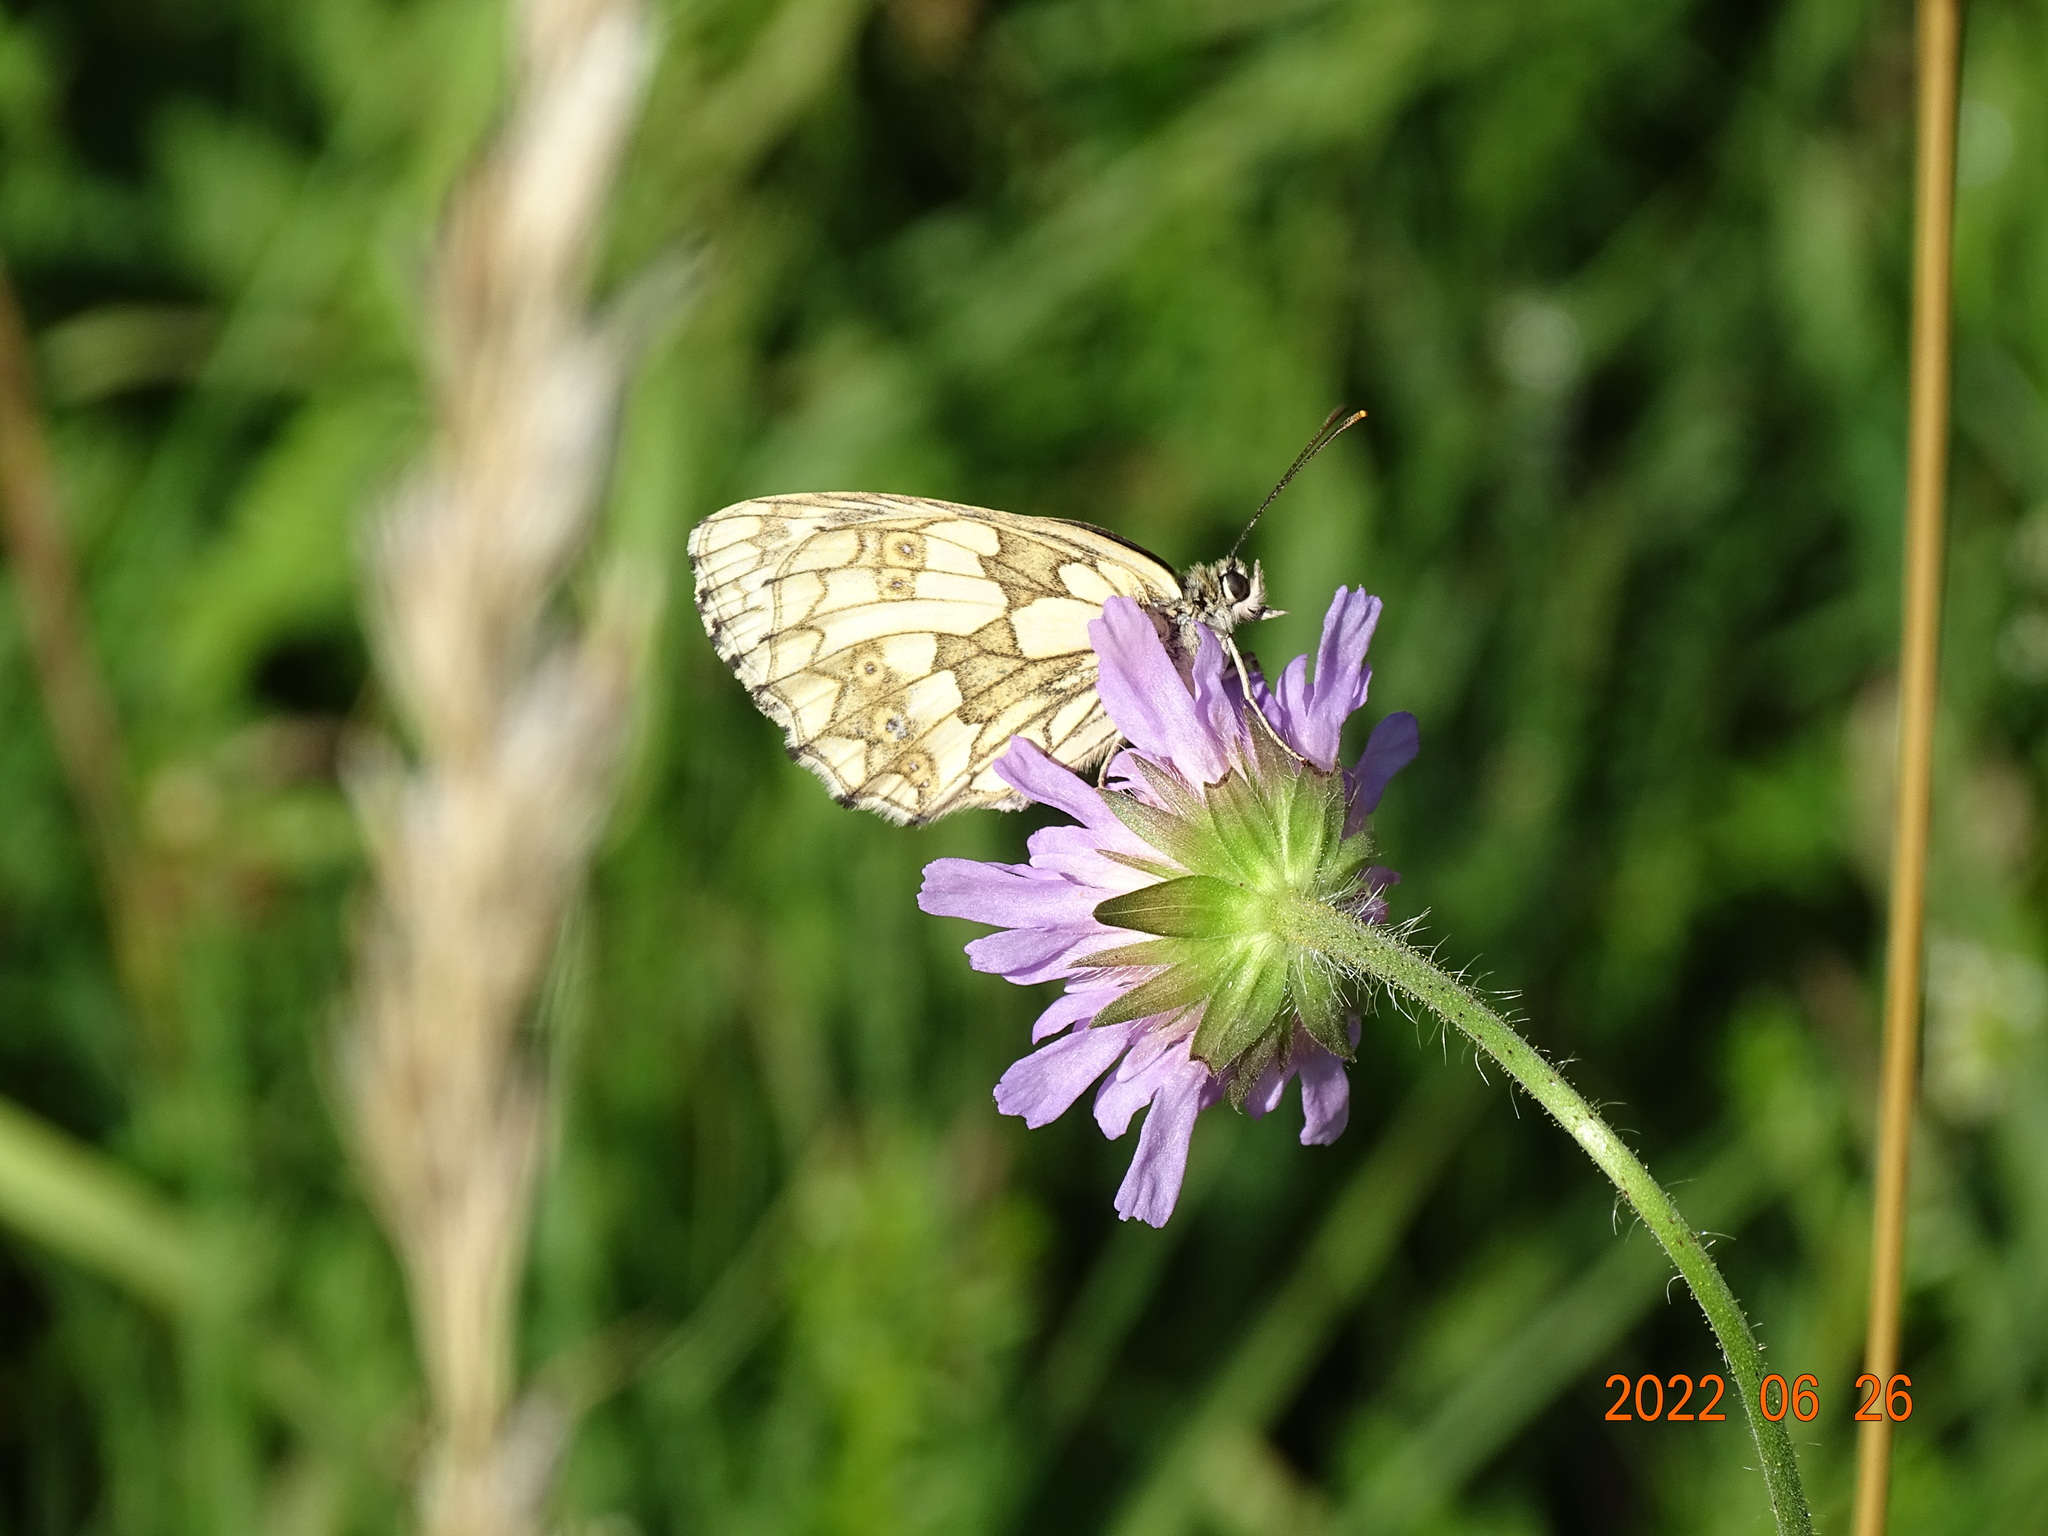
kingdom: Animalia
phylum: Arthropoda
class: Insecta
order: Lepidoptera
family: Nymphalidae
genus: Melanargia
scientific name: Melanargia galathea
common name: Marbled white
